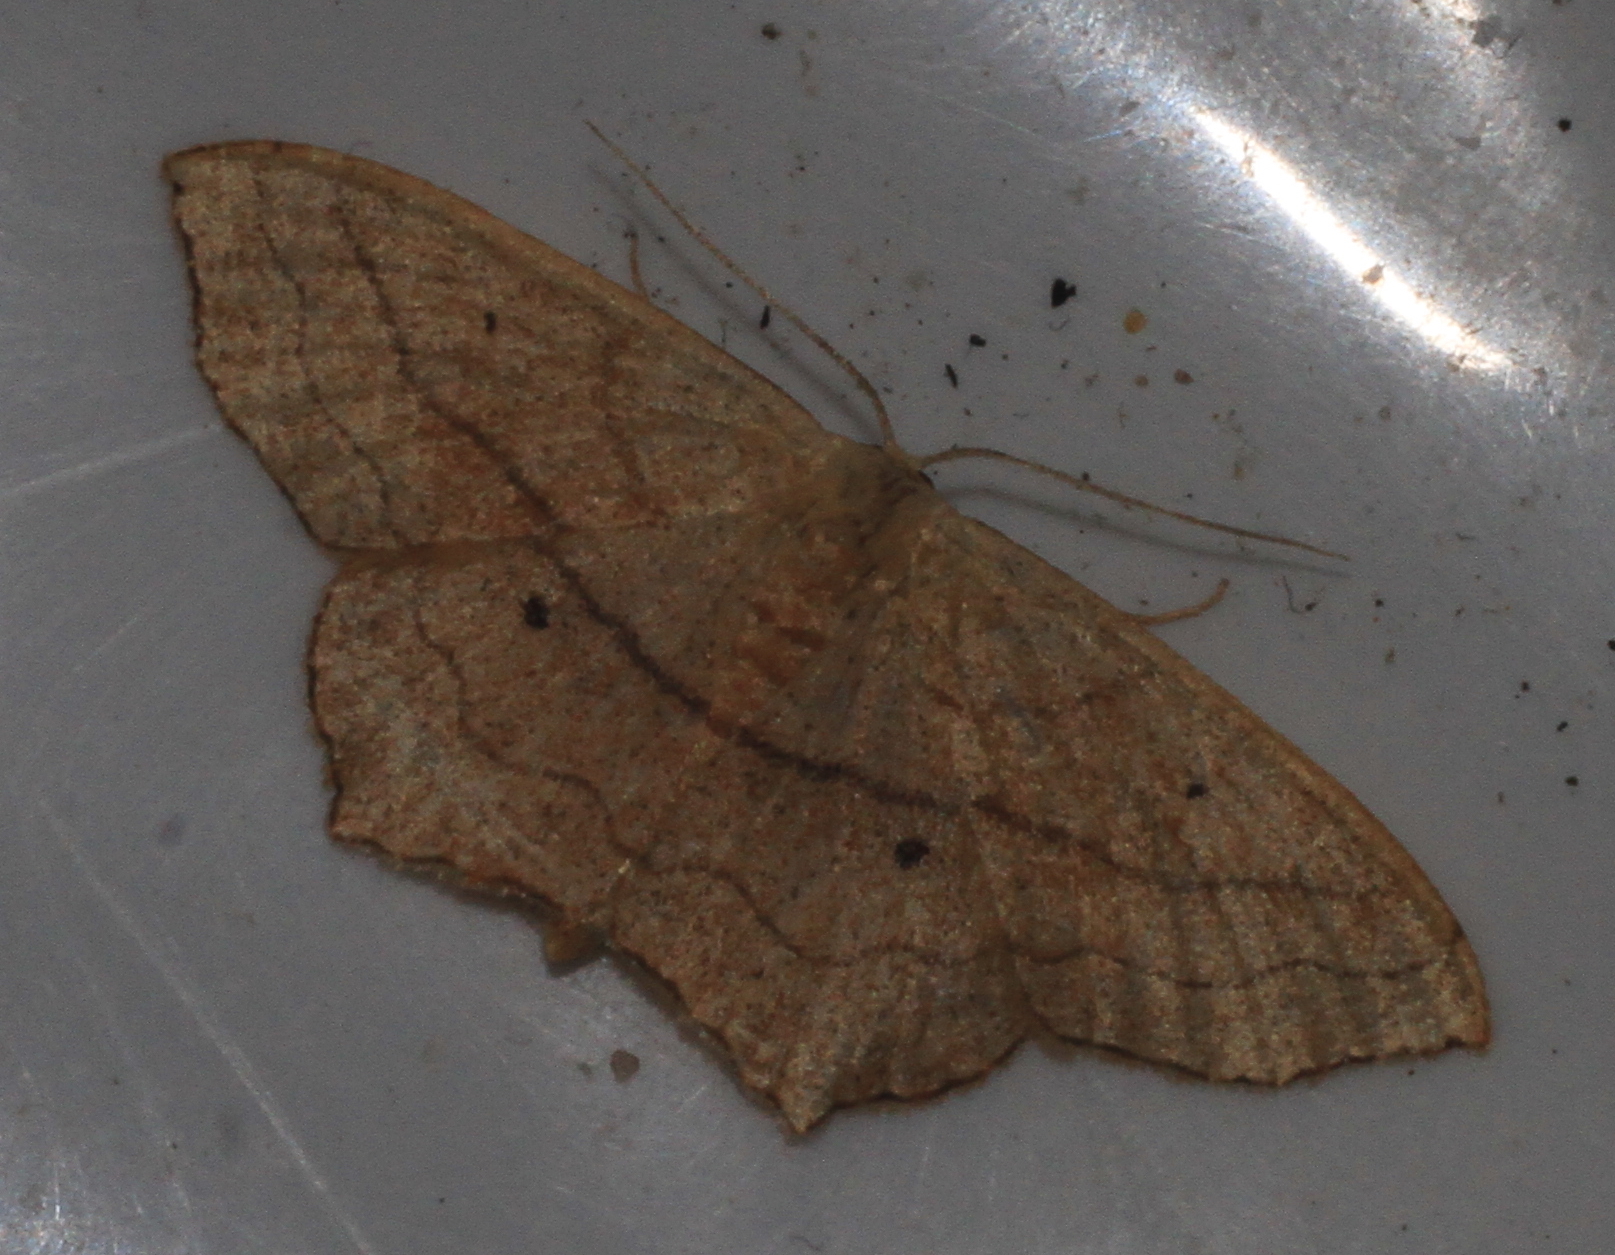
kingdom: Animalia
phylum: Arthropoda
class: Insecta
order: Lepidoptera
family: Geometridae
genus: Scopula
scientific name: Scopula imitaria
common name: Small blood-vein
